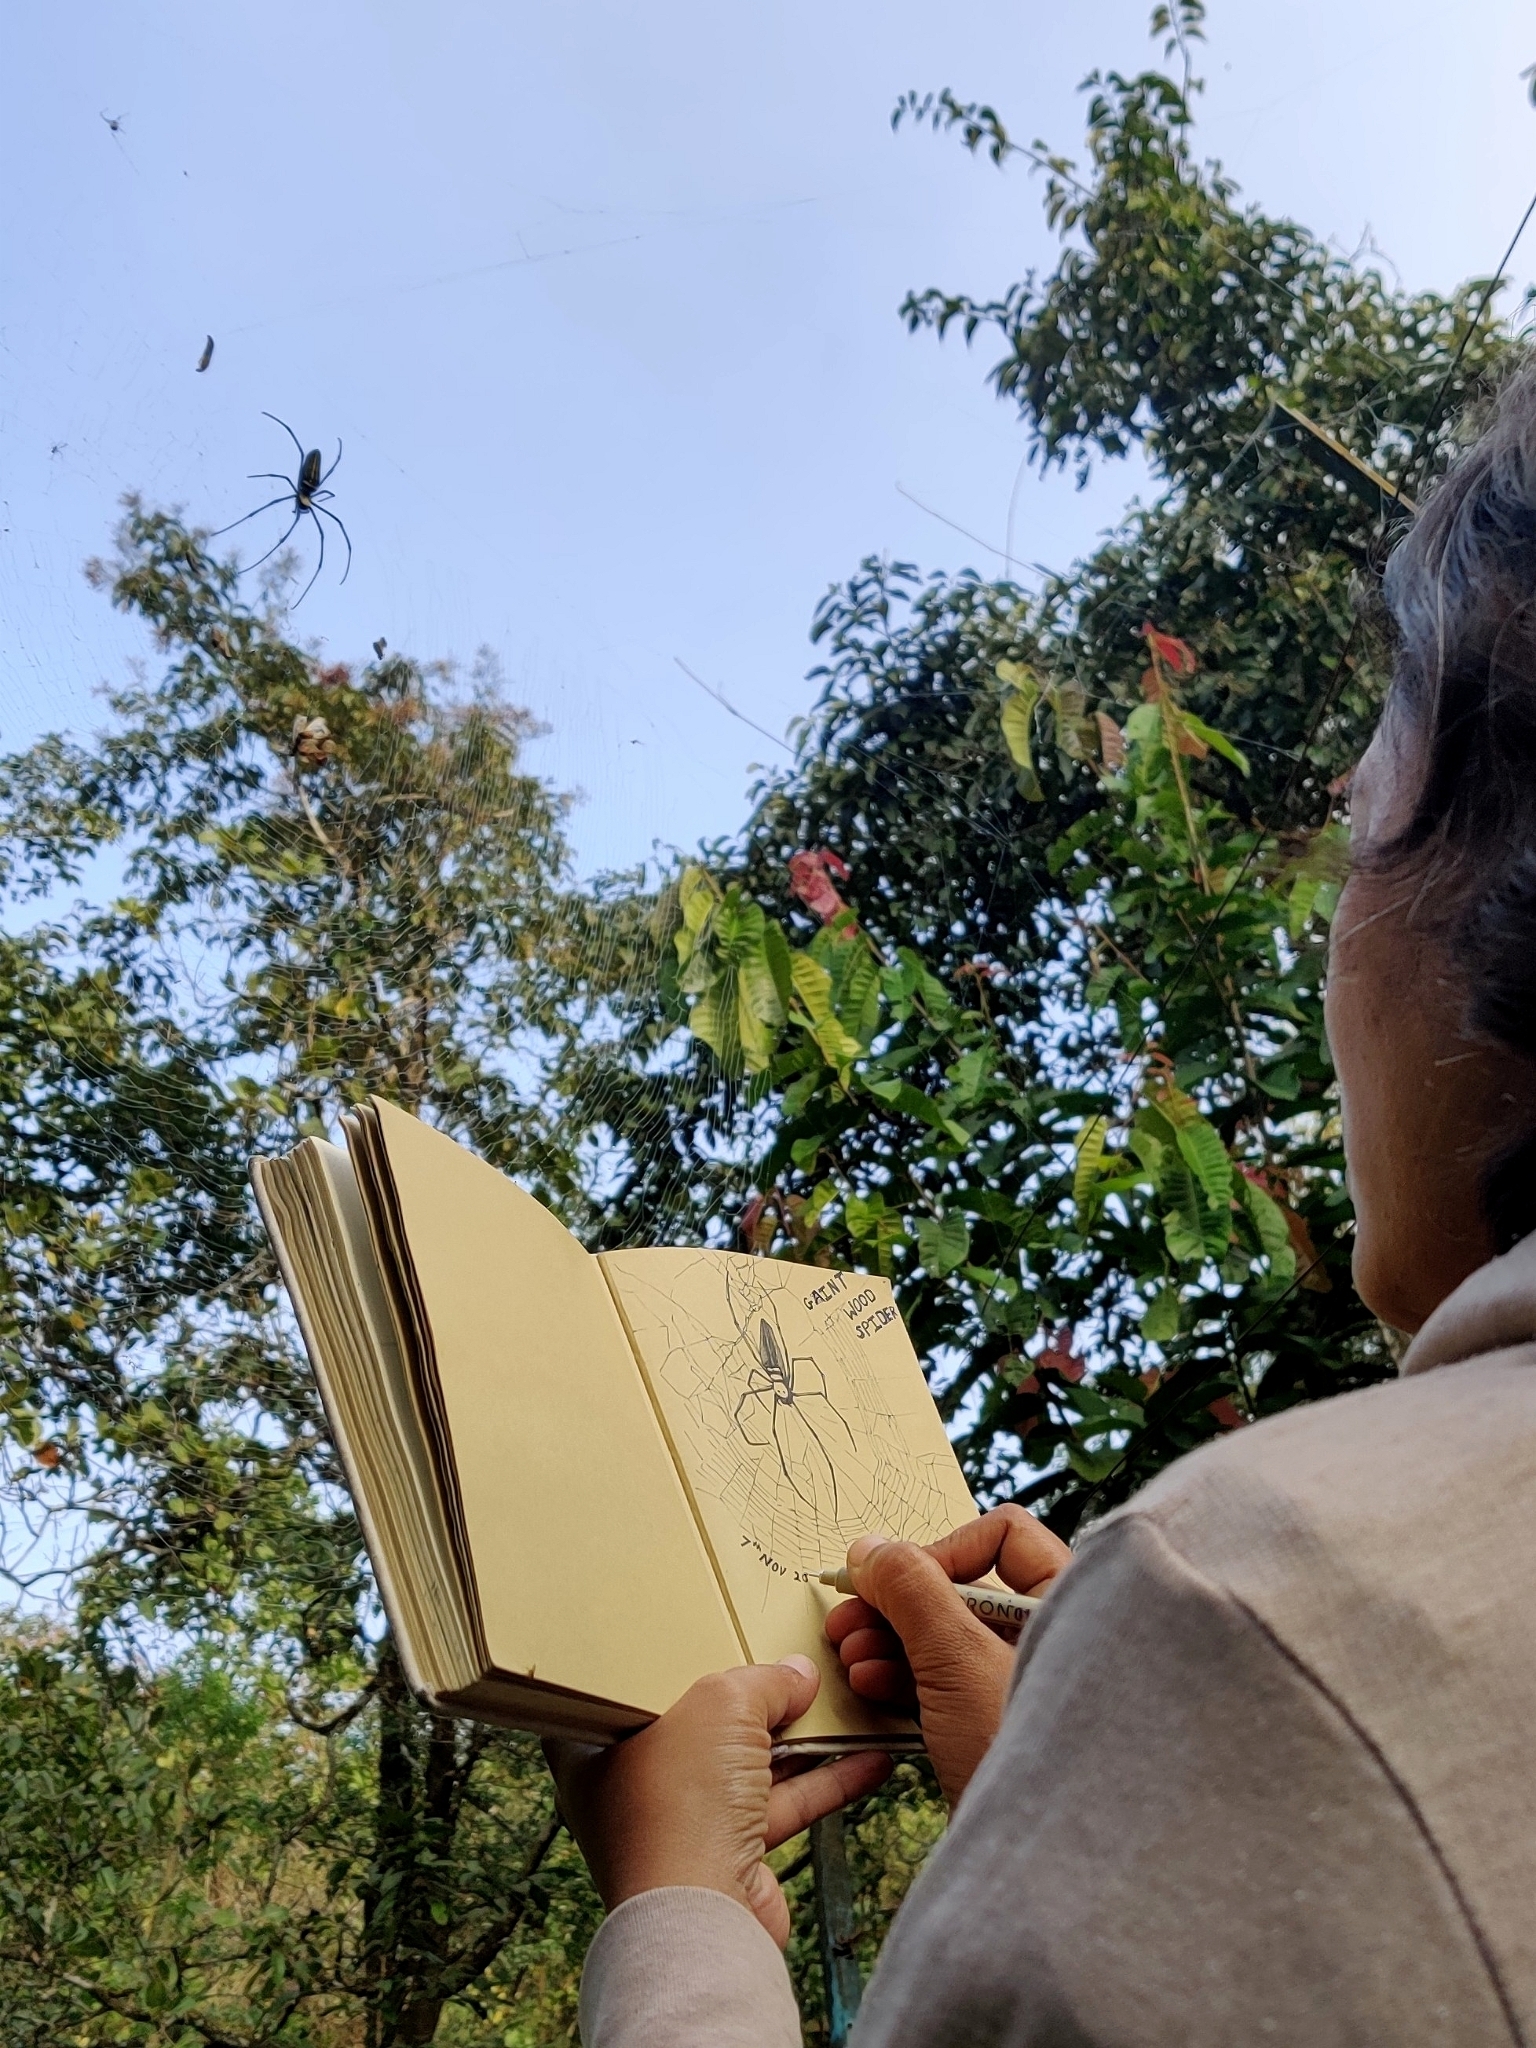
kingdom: Animalia
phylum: Arthropoda
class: Arachnida
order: Araneae
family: Araneidae
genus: Nephila
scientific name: Nephila pilipes
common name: Giant golden orb weaver
